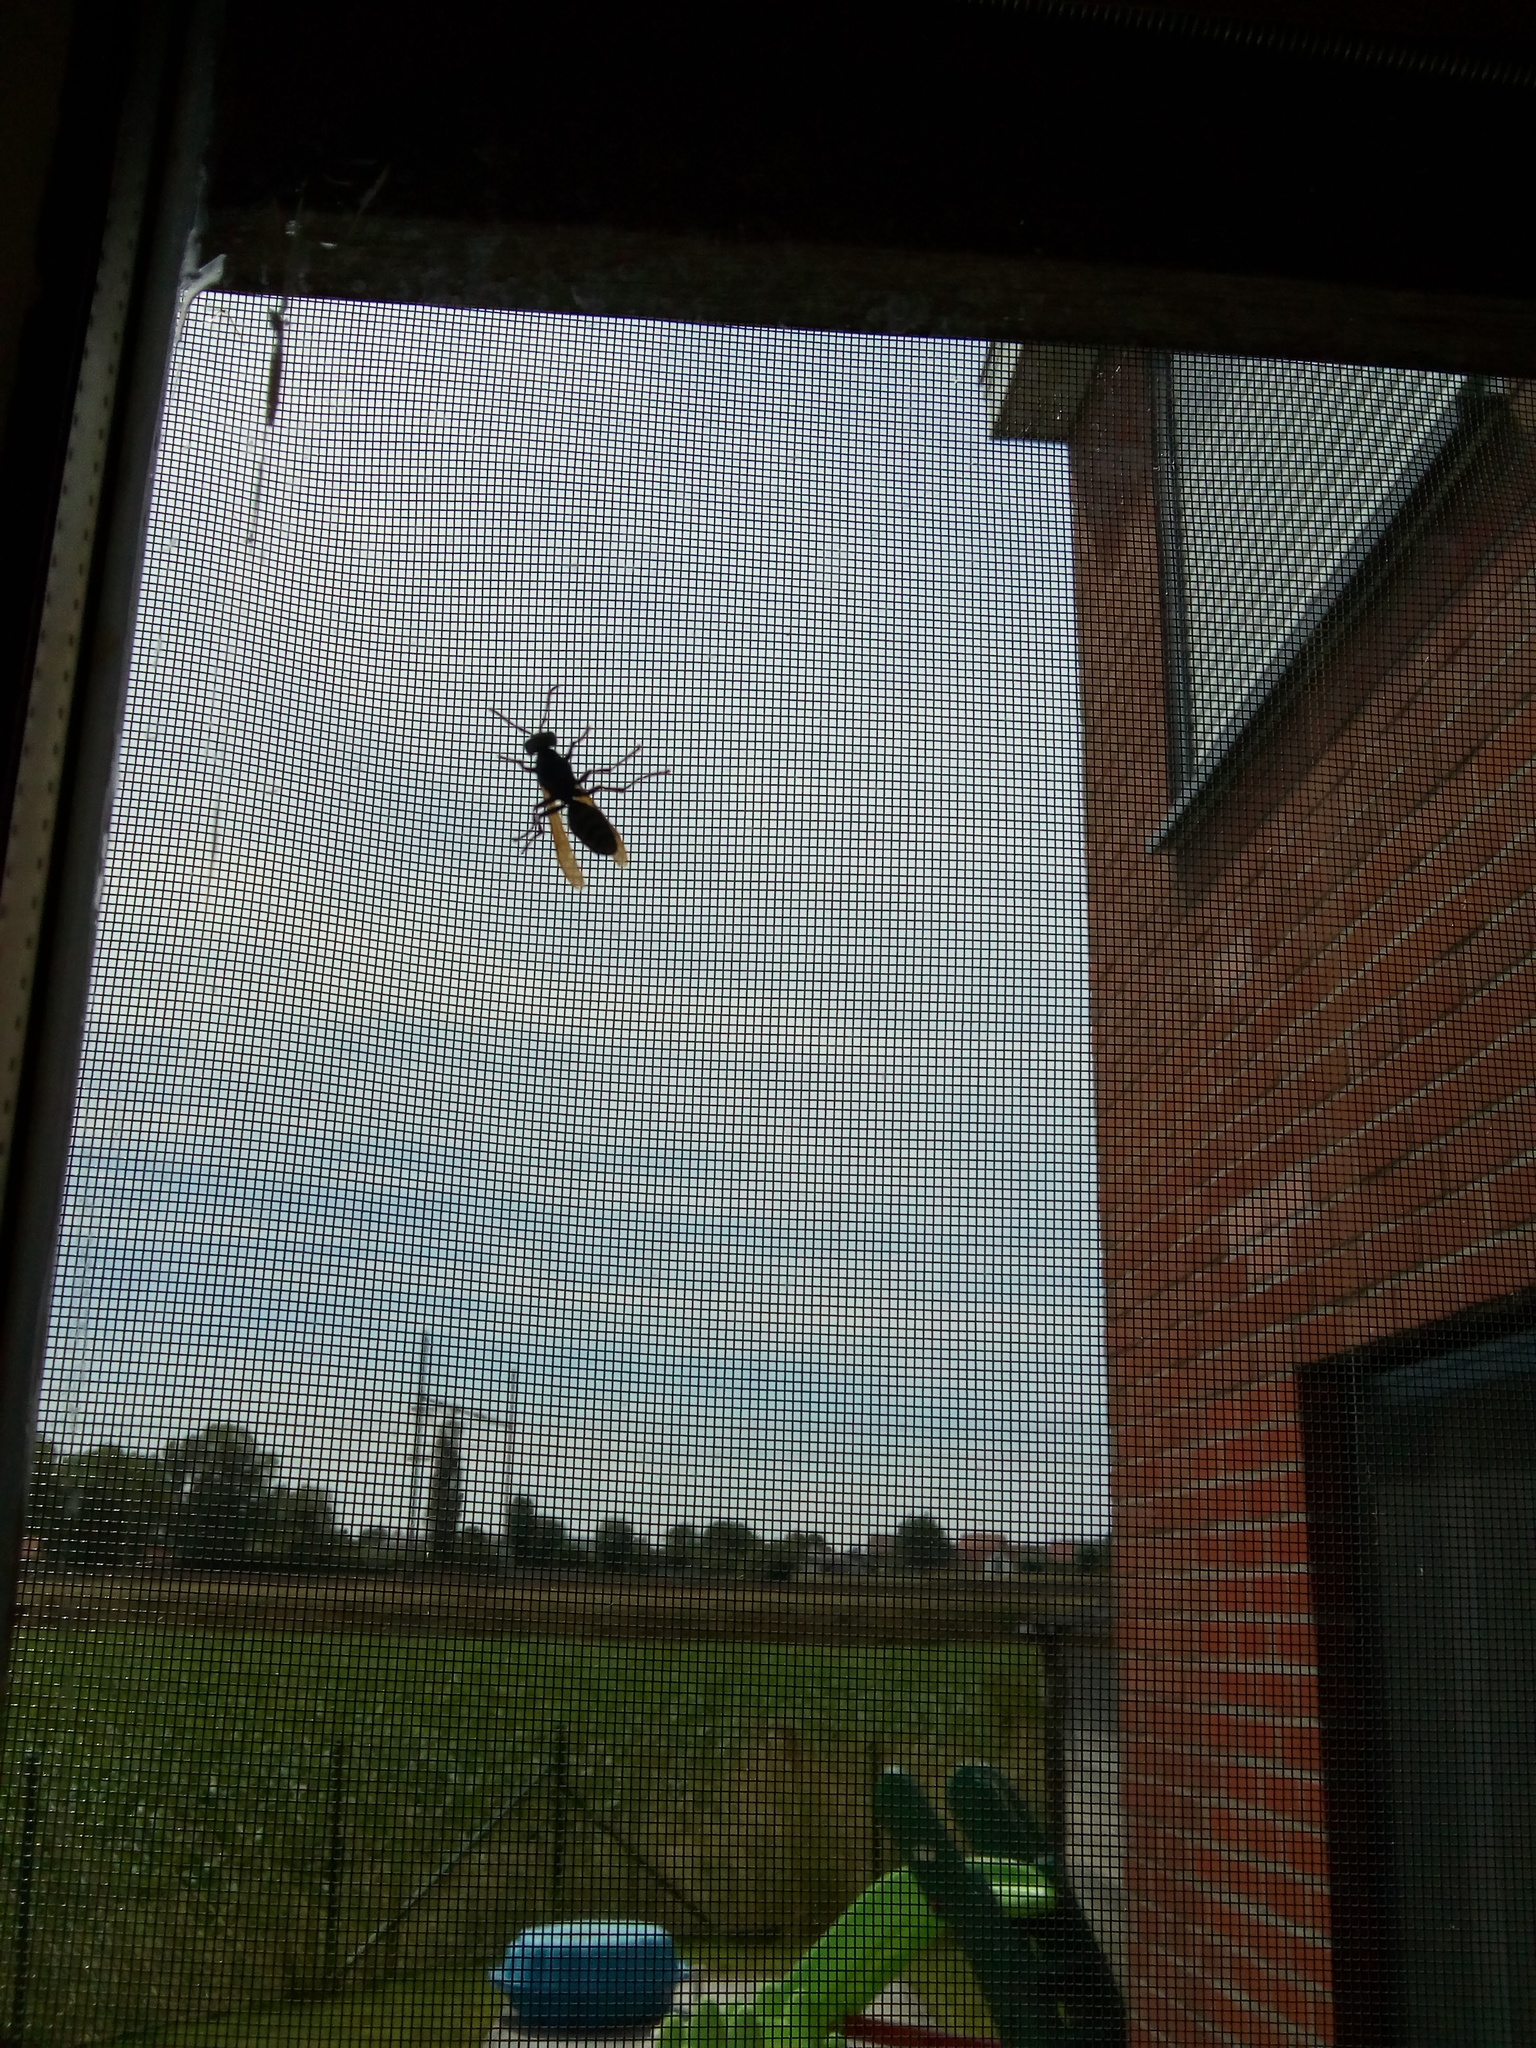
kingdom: Animalia
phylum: Arthropoda
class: Insecta
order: Hymenoptera
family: Eumenidae
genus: Polistes
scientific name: Polistes dominula
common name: Paper wasp
